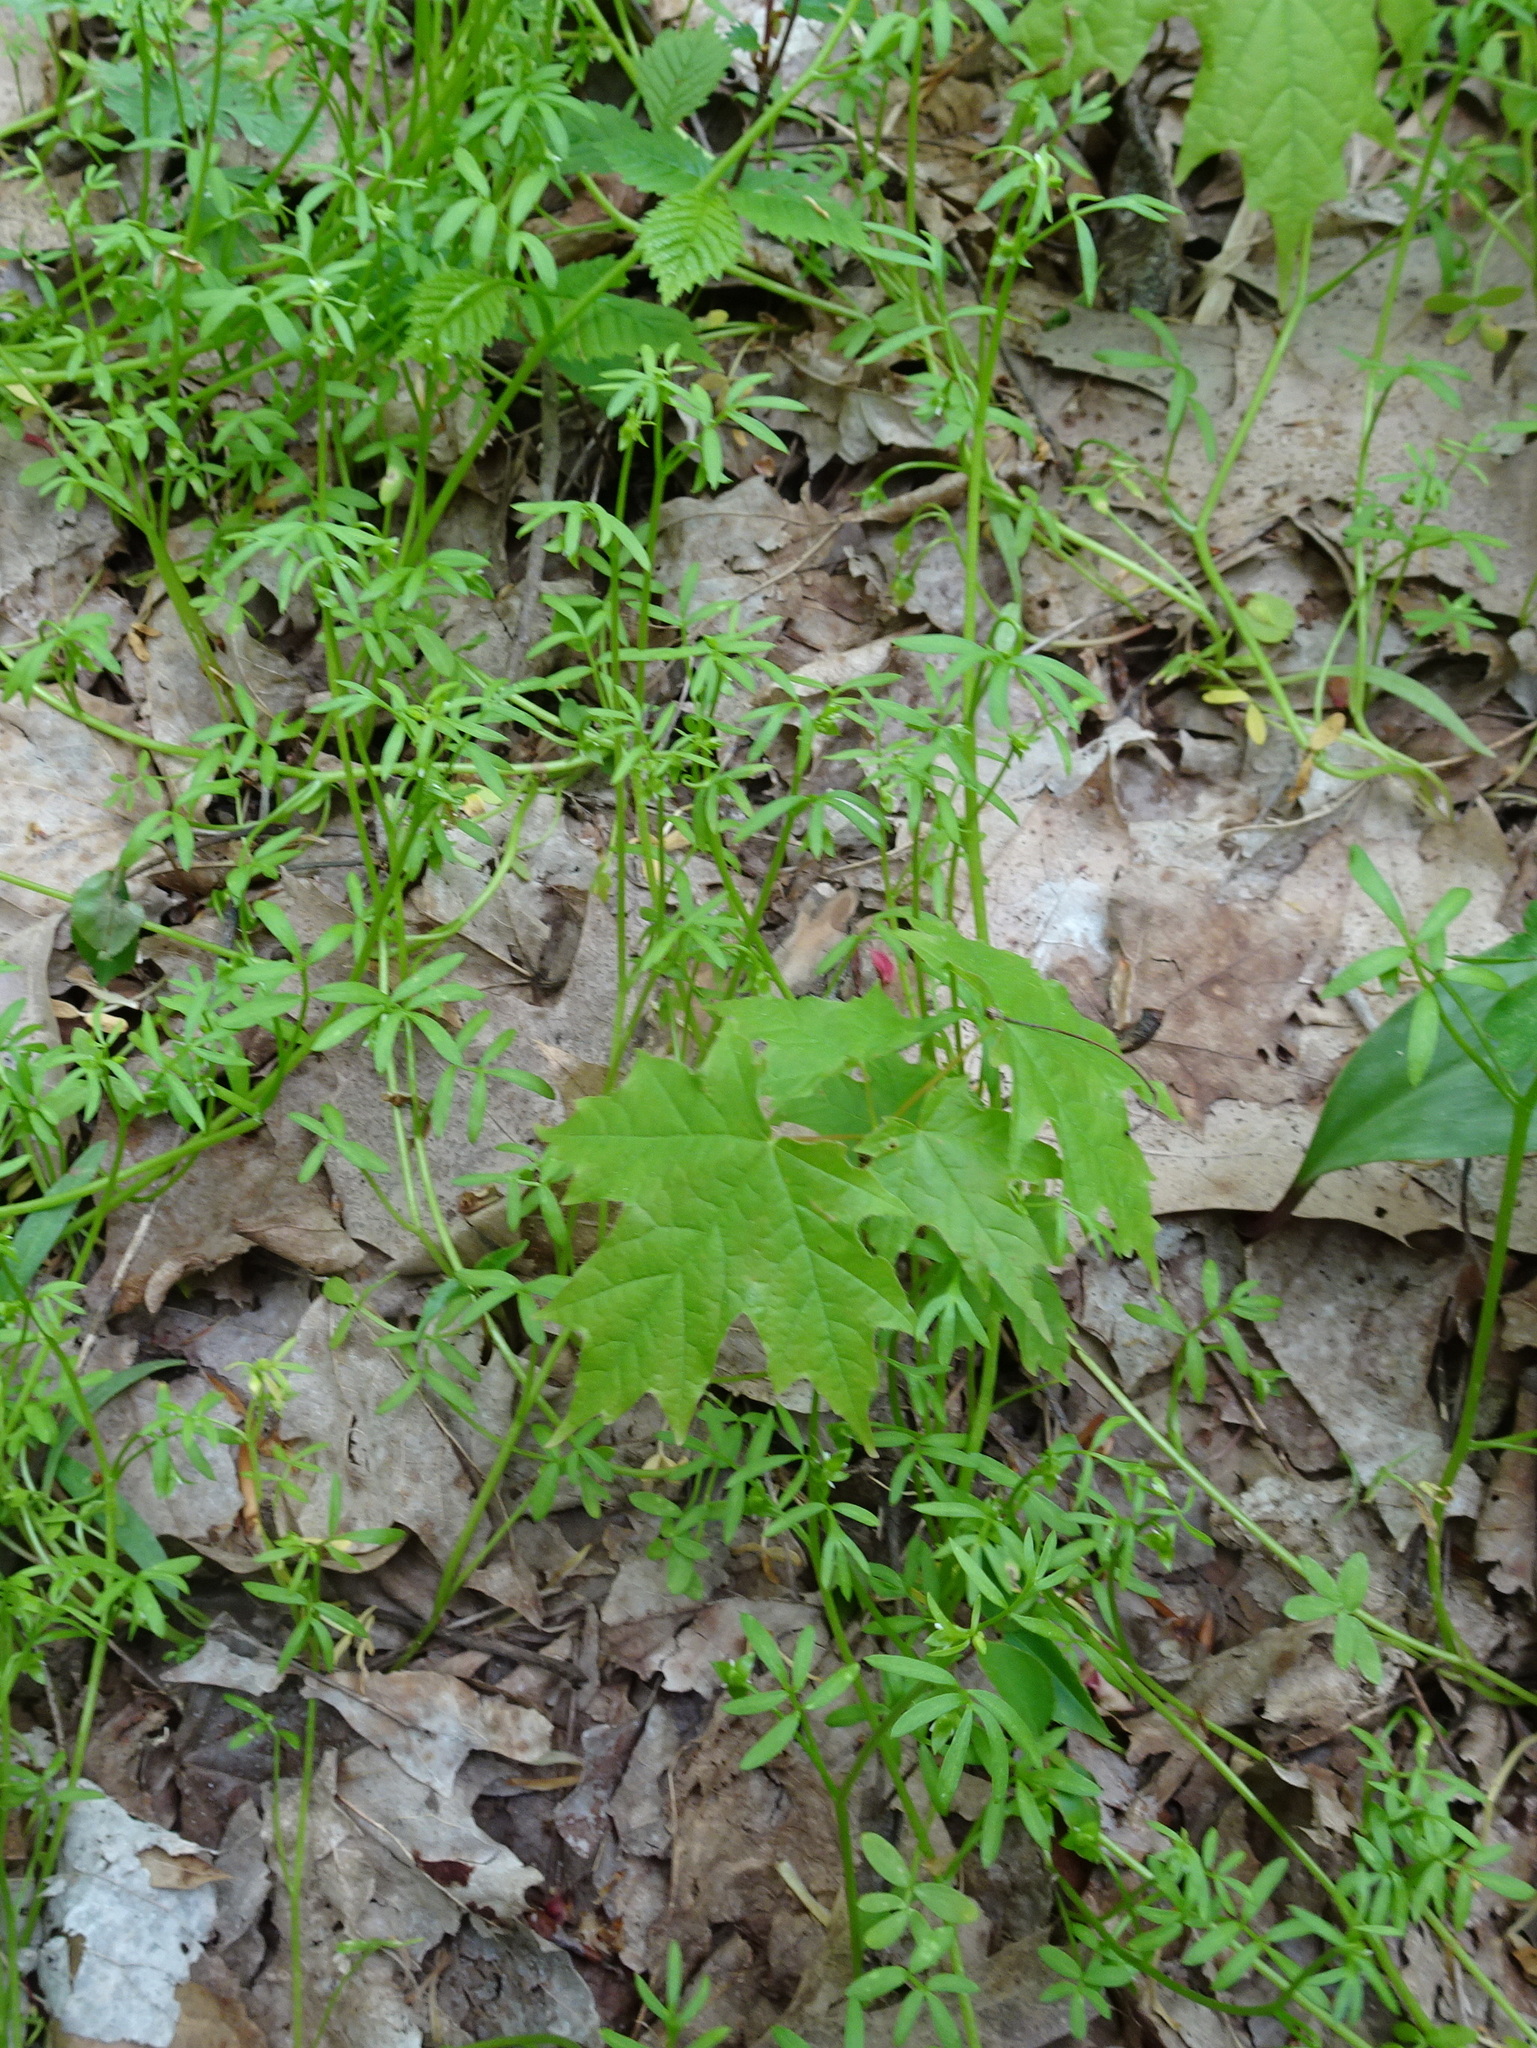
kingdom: Plantae
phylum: Tracheophyta
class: Magnoliopsida
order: Brassicales
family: Limnanthaceae
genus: Floerkea
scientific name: Floerkea proserpinacoides
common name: False mermaid
